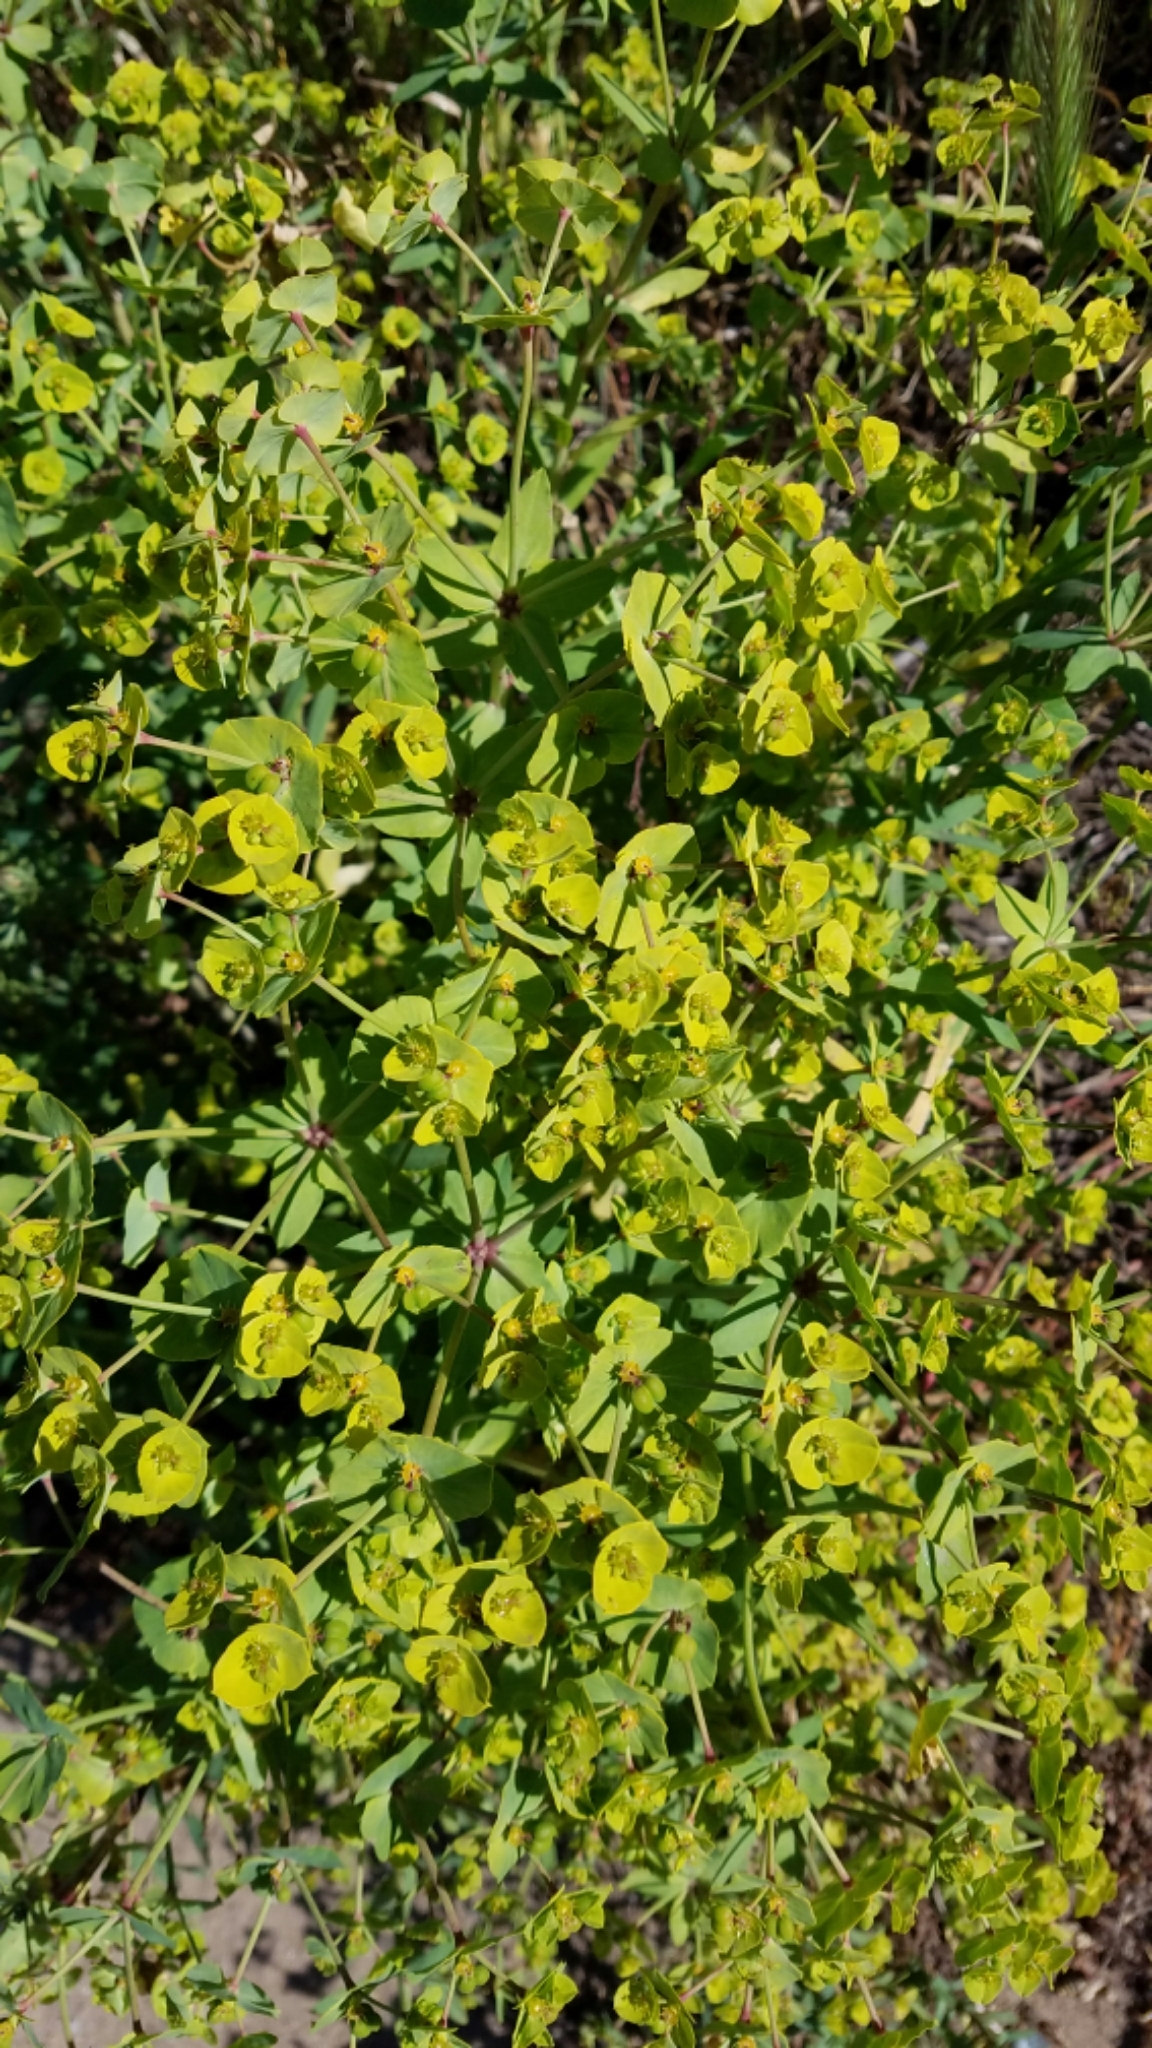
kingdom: Plantae
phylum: Tracheophyta
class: Magnoliopsida
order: Malpighiales
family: Euphorbiaceae
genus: Euphorbia
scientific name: Euphorbia terracina
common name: Geraldton carnation weed
